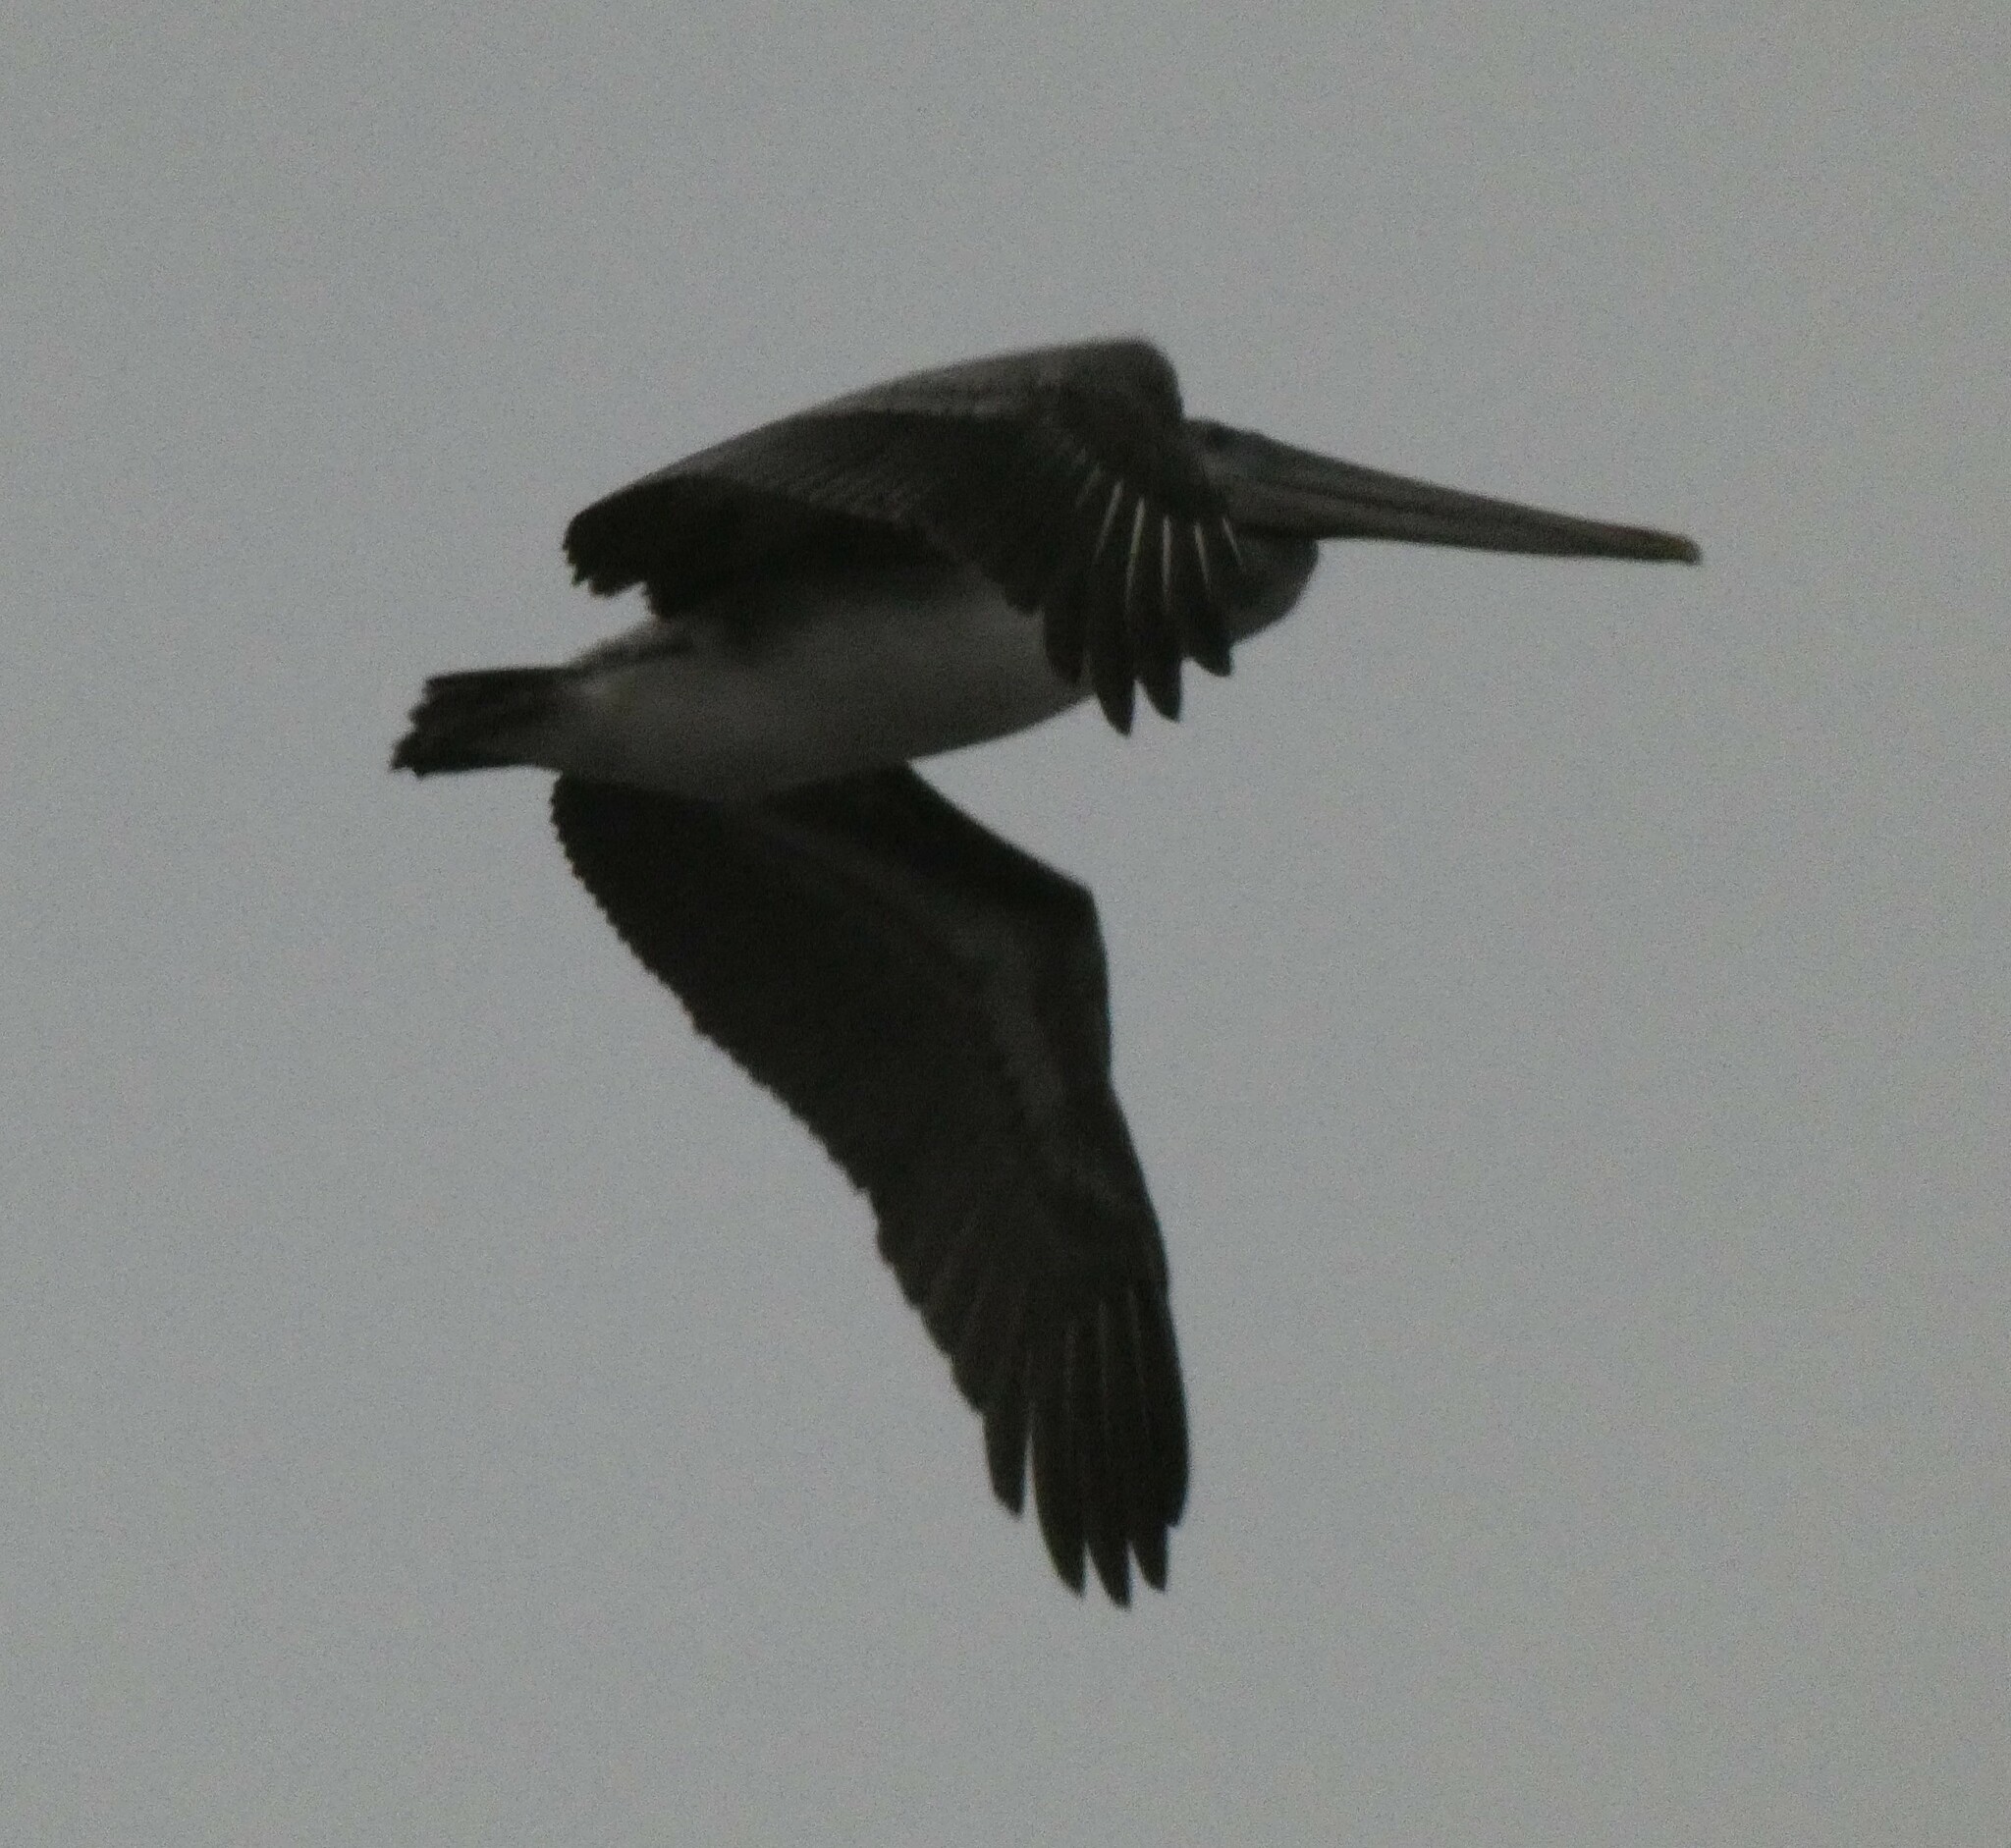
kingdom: Animalia
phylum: Chordata
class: Aves
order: Pelecaniformes
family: Pelecanidae
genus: Pelecanus
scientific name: Pelecanus occidentalis
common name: Brown pelican
